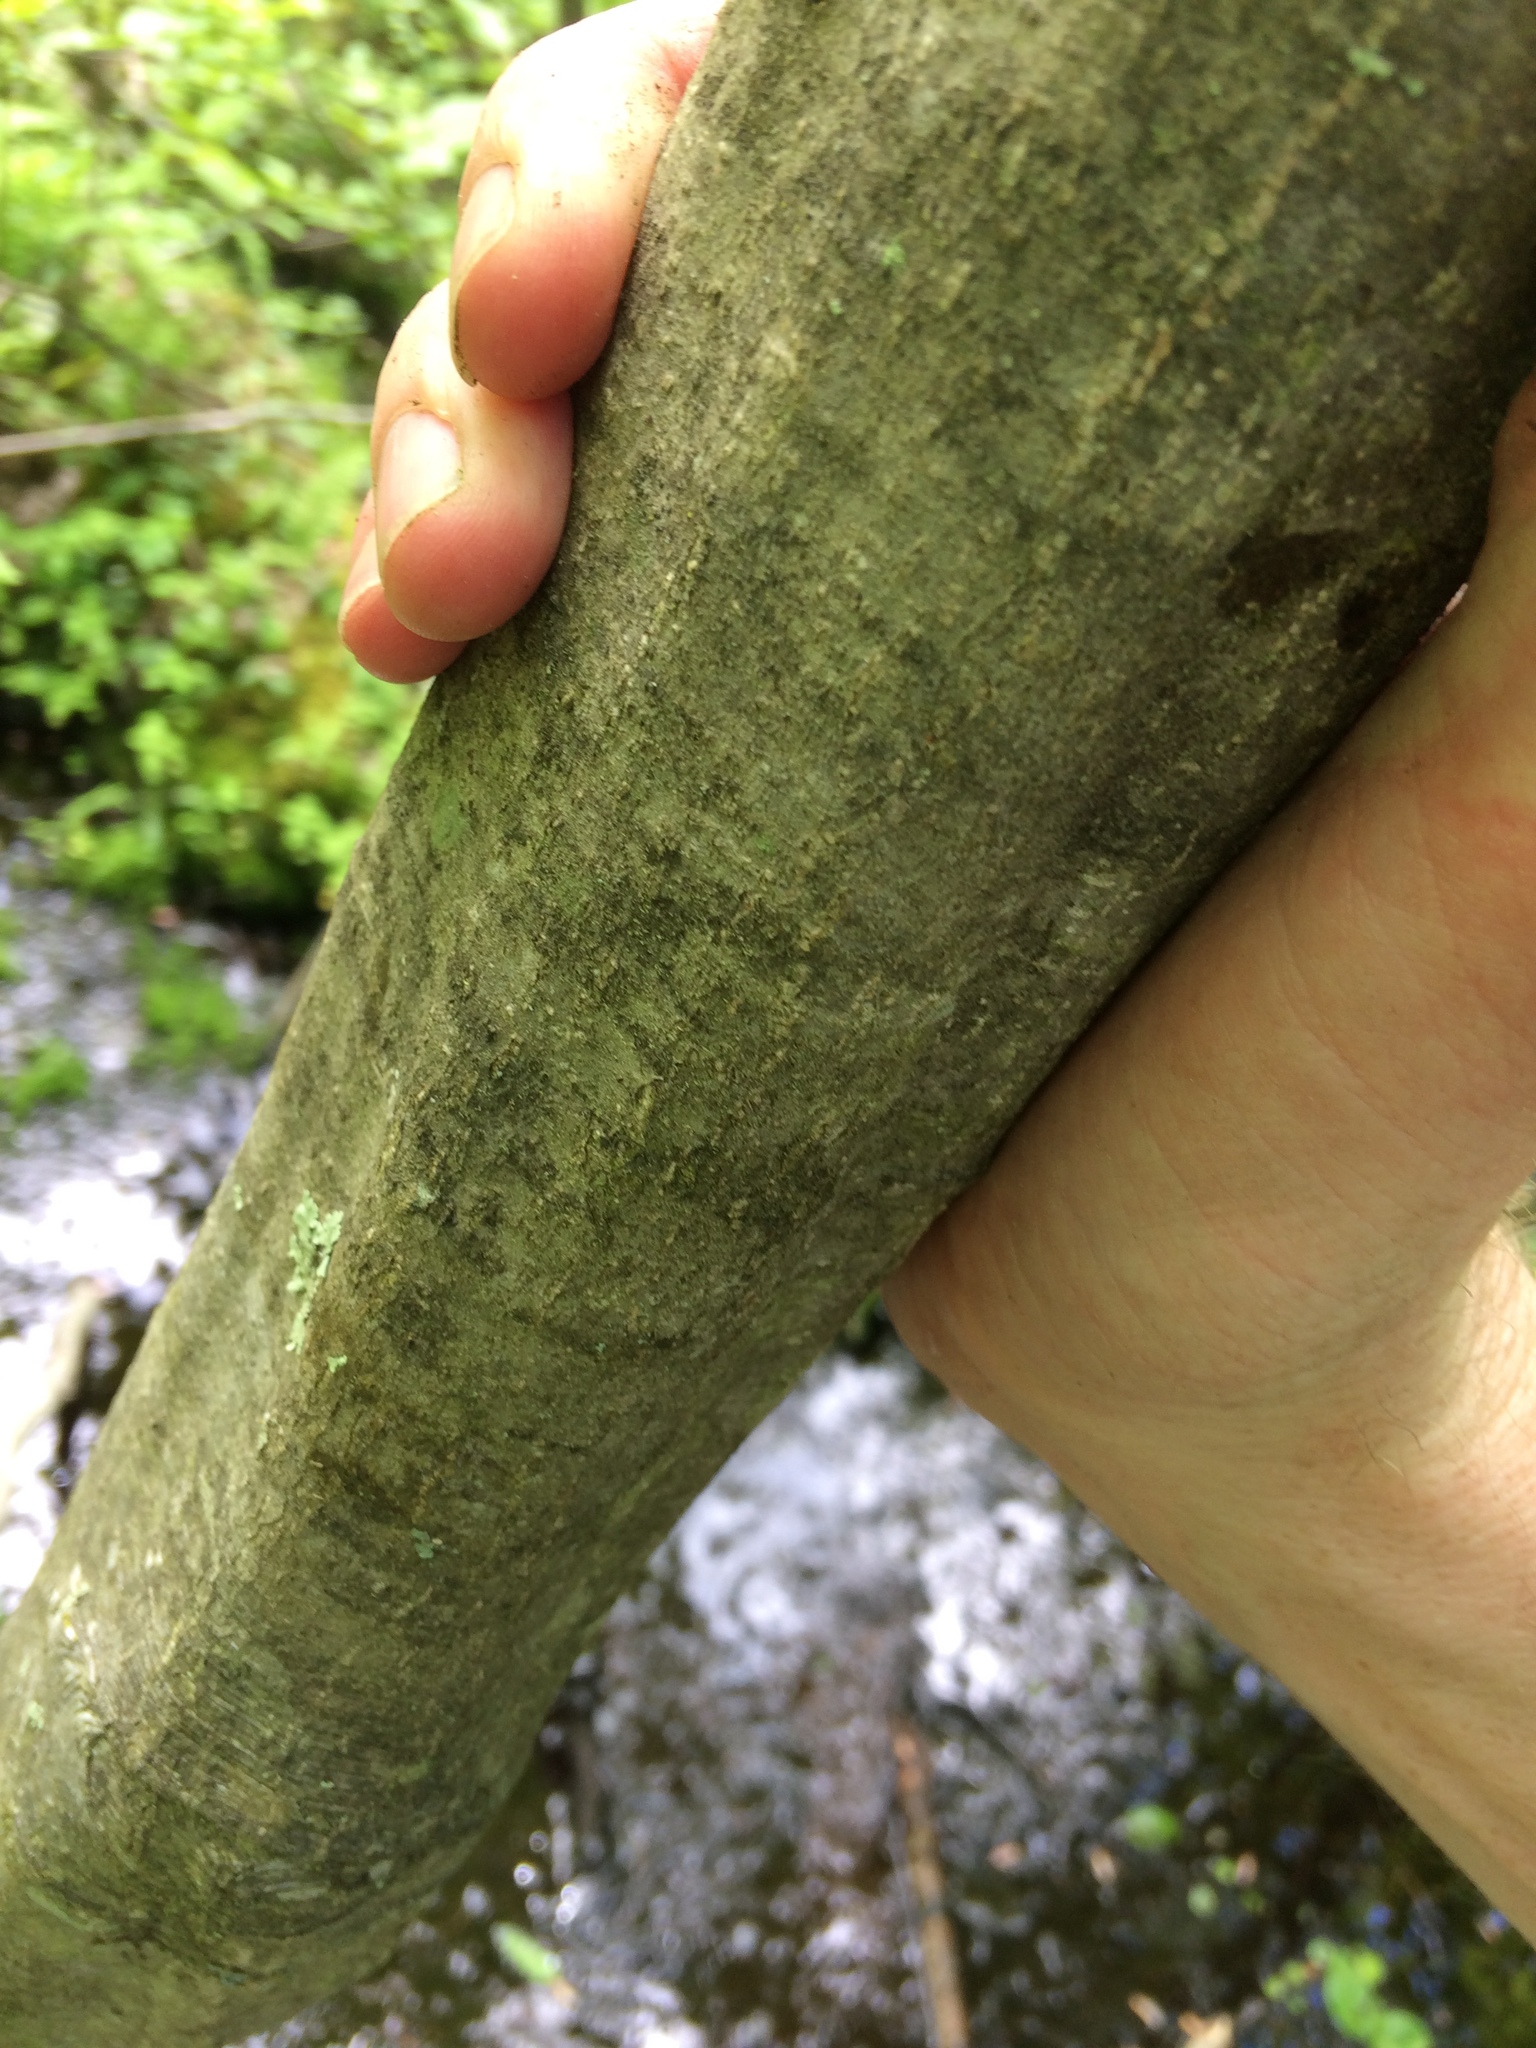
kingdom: Plantae
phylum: Tracheophyta
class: Magnoliopsida
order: Fagales
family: Betulaceae
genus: Carpinus
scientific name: Carpinus caroliniana
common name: American hornbeam
